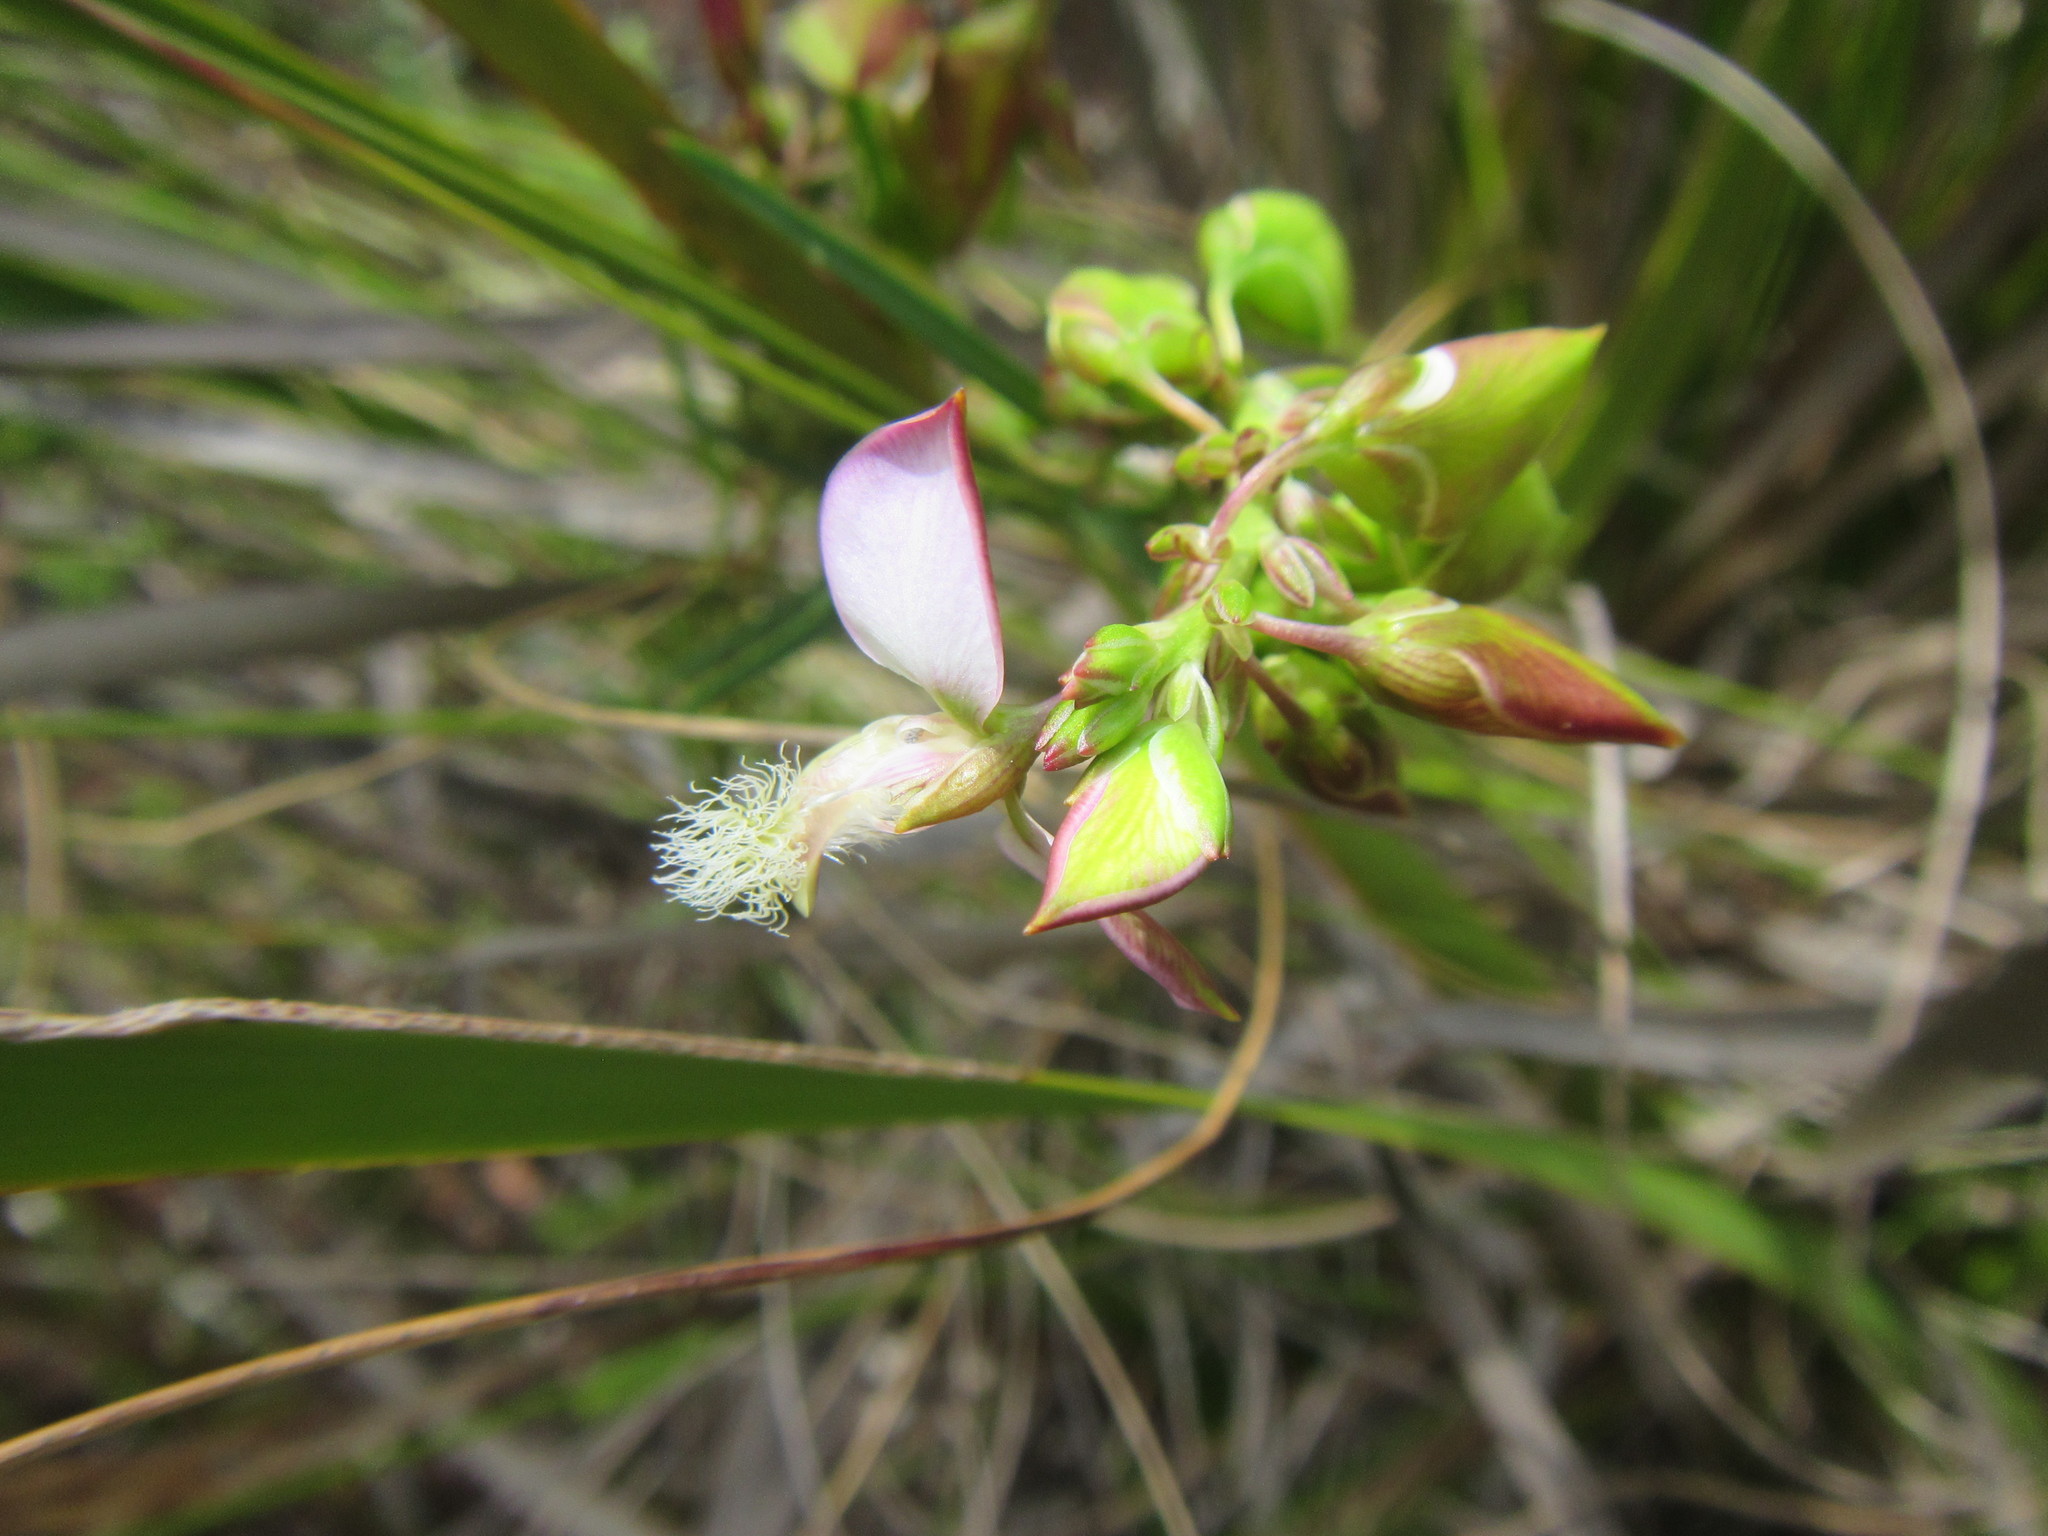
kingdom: Plantae
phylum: Tracheophyta
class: Magnoliopsida
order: Fabales
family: Polygalaceae
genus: Polygala
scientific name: Polygala bracteolata
